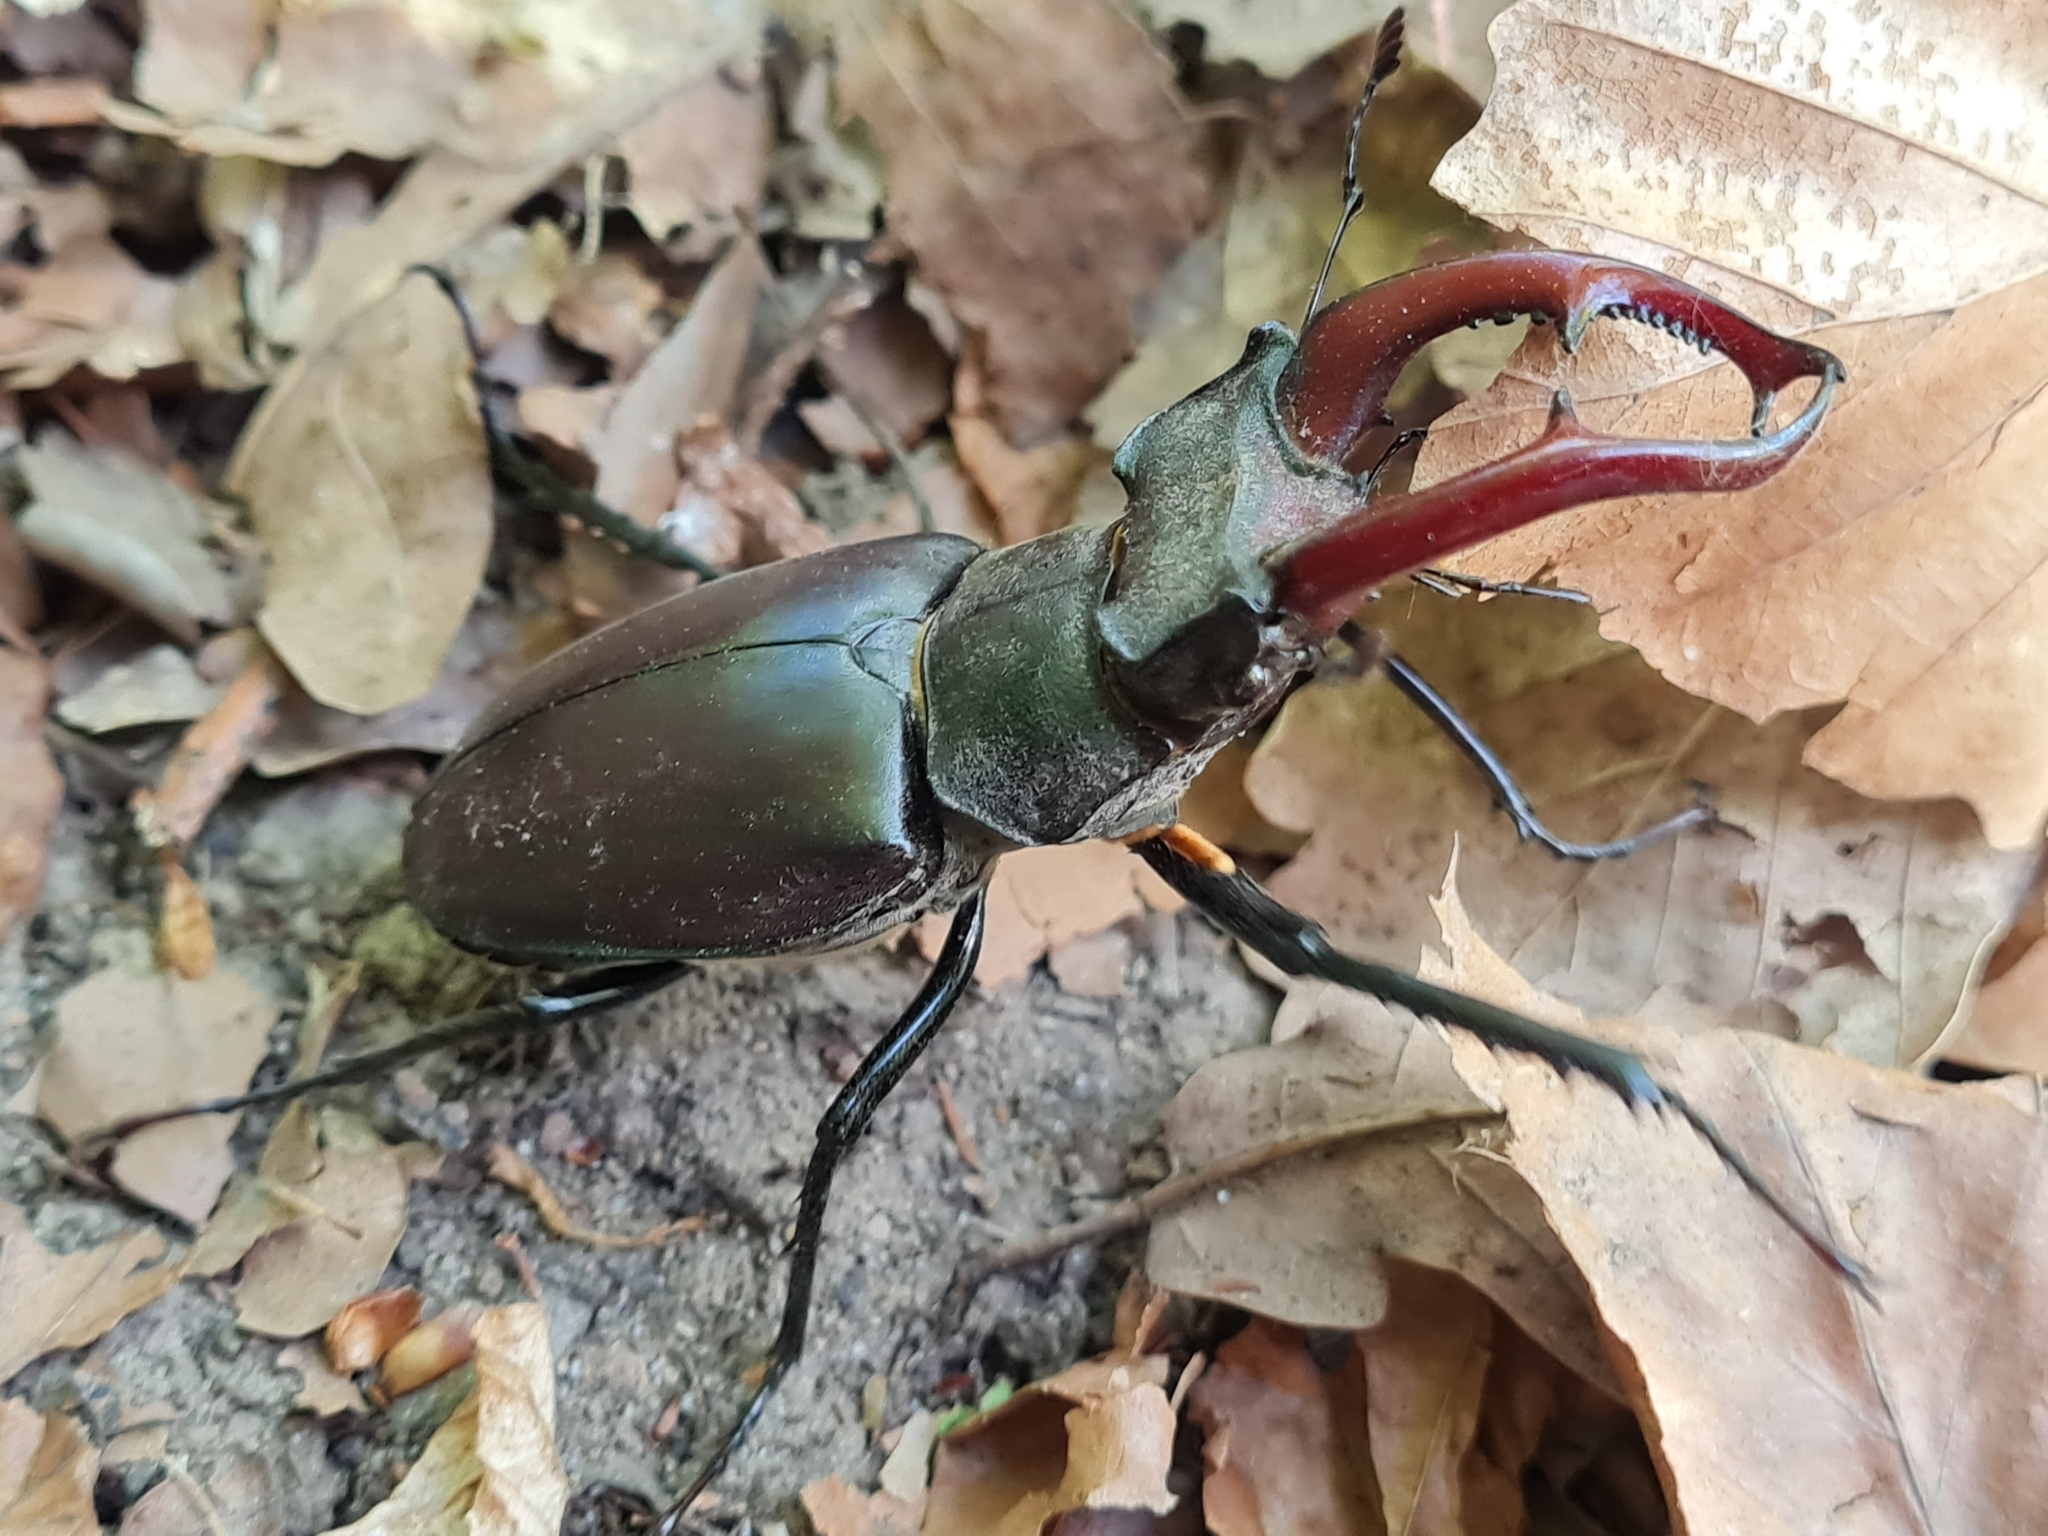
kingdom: Animalia
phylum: Arthropoda
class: Insecta
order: Coleoptera
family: Lucanidae
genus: Lucanus
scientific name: Lucanus cervus
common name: Stag beetle
